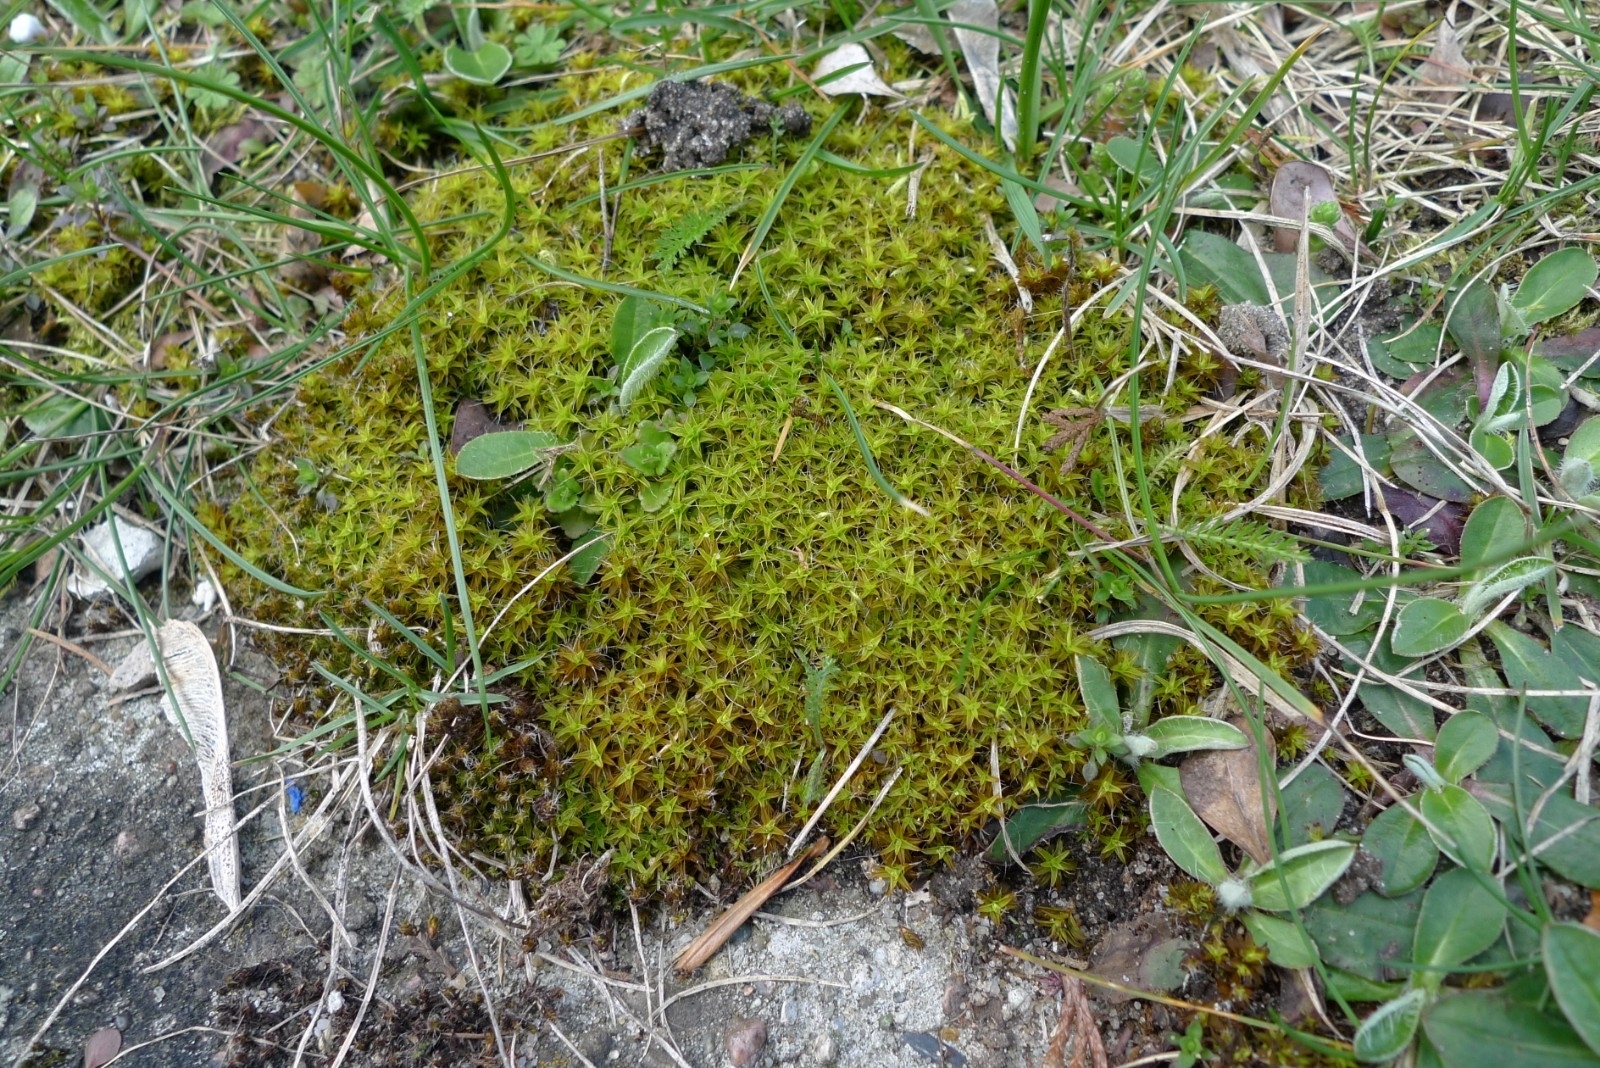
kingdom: Plantae
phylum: Bryophyta
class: Bryopsida
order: Pottiales
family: Pottiaceae
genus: Syntrichia
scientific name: Syntrichia ruralis
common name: Sidewalk screw moss
